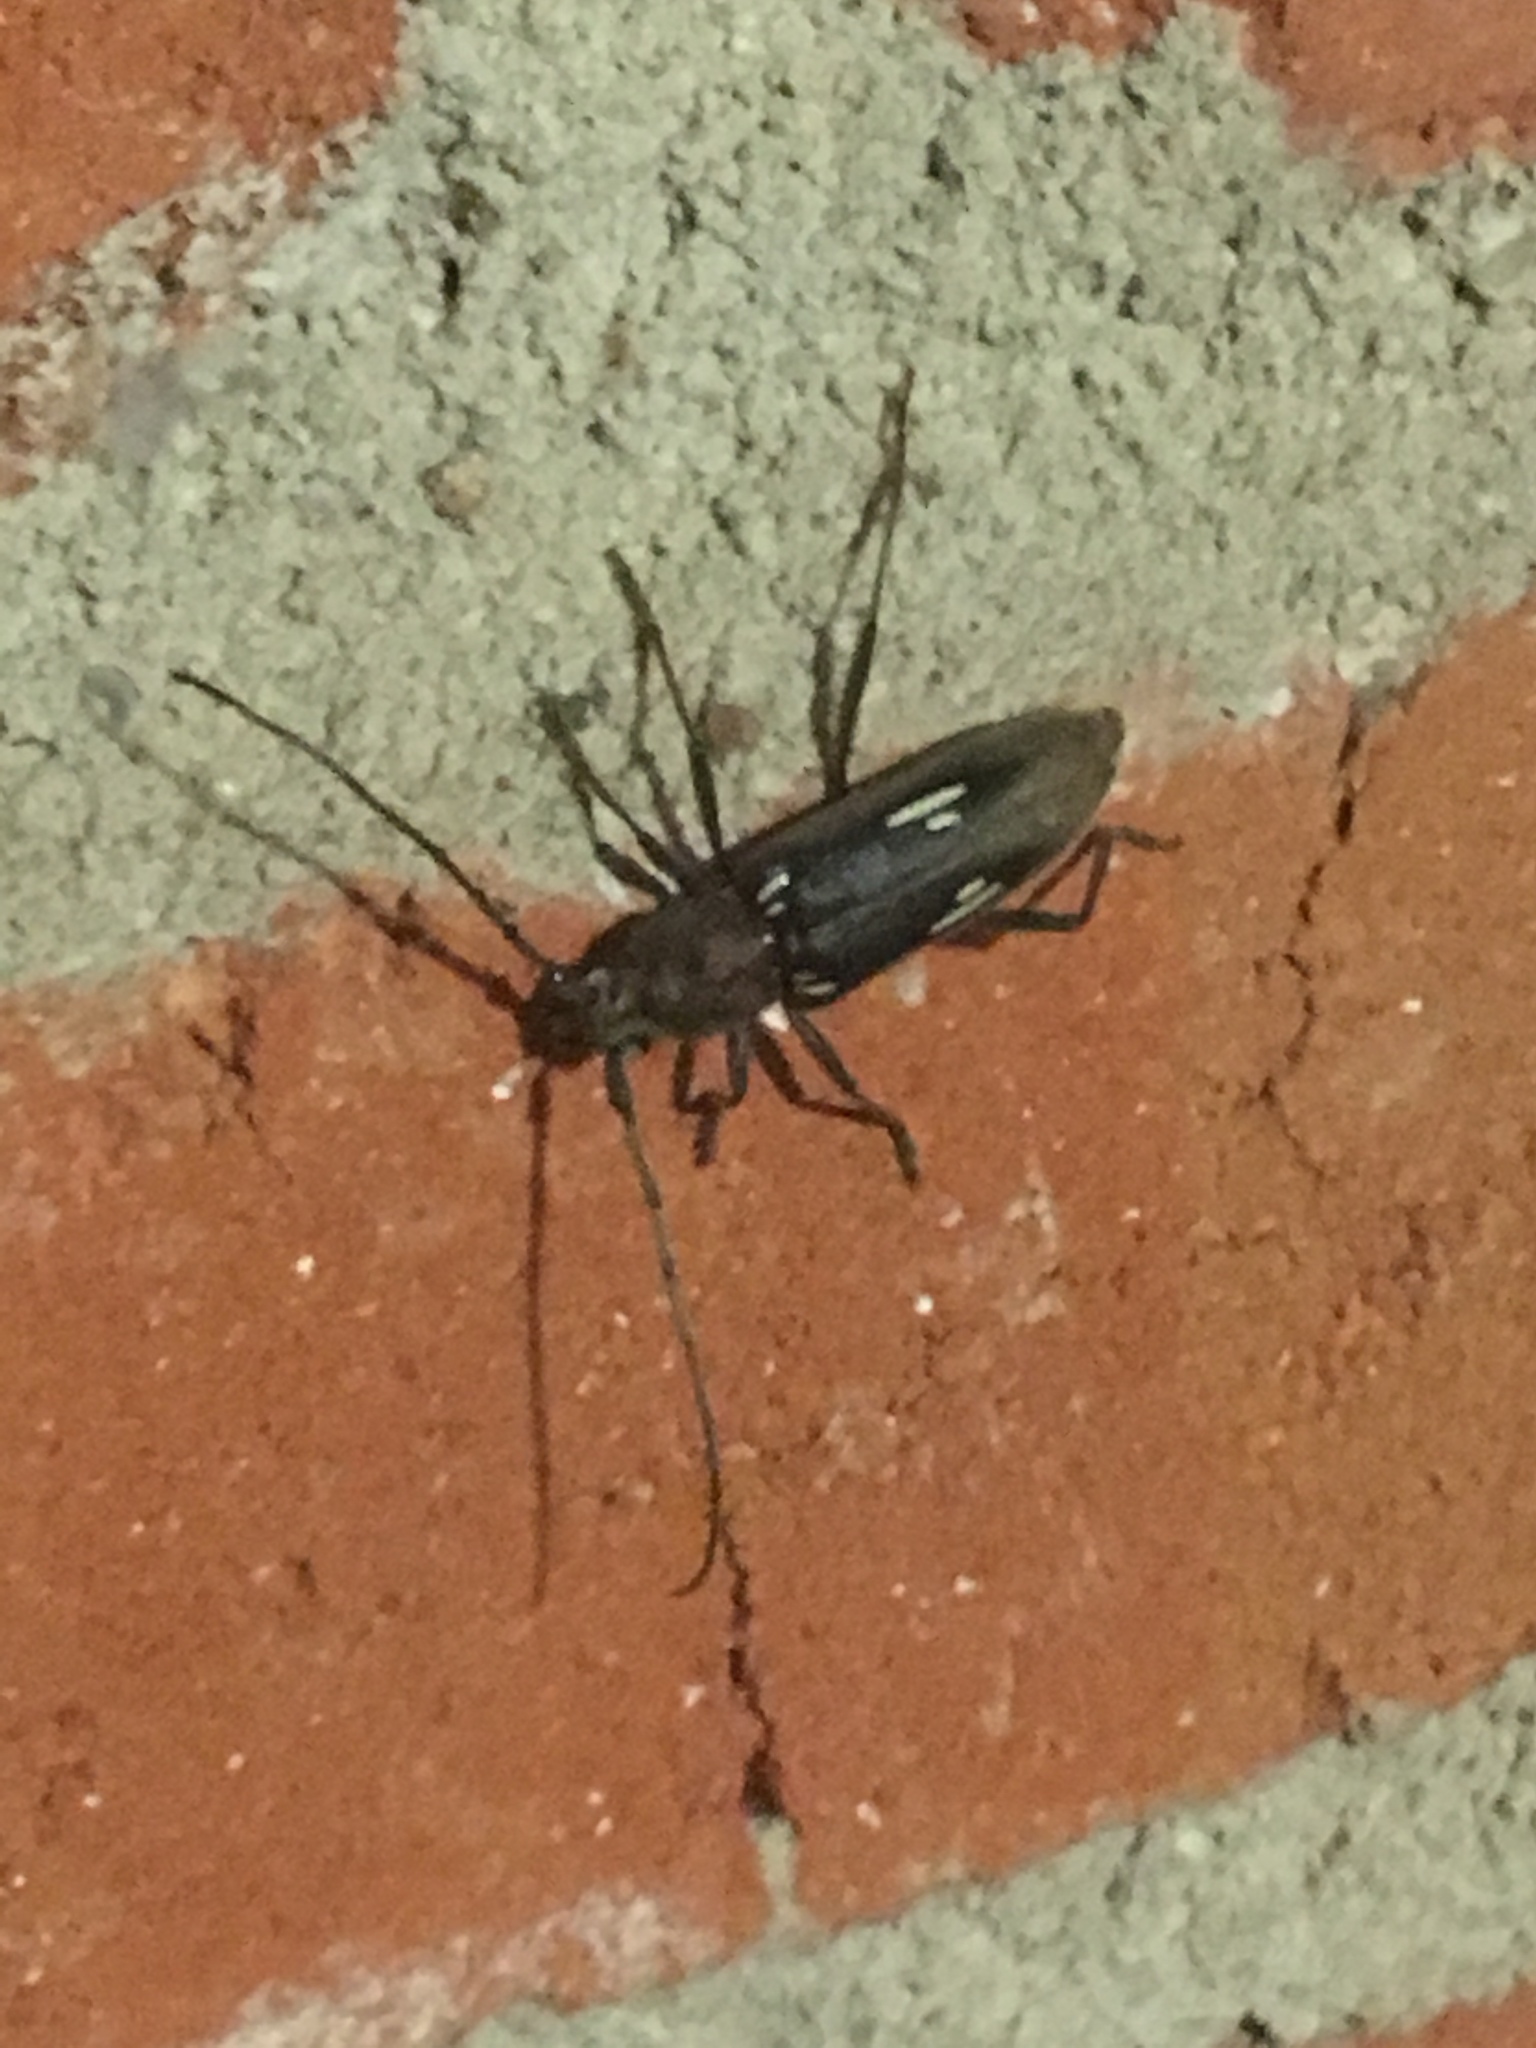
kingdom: Animalia
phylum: Arthropoda
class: Insecta
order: Coleoptera
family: Cerambycidae
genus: Eburia
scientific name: Eburia ovicollis
